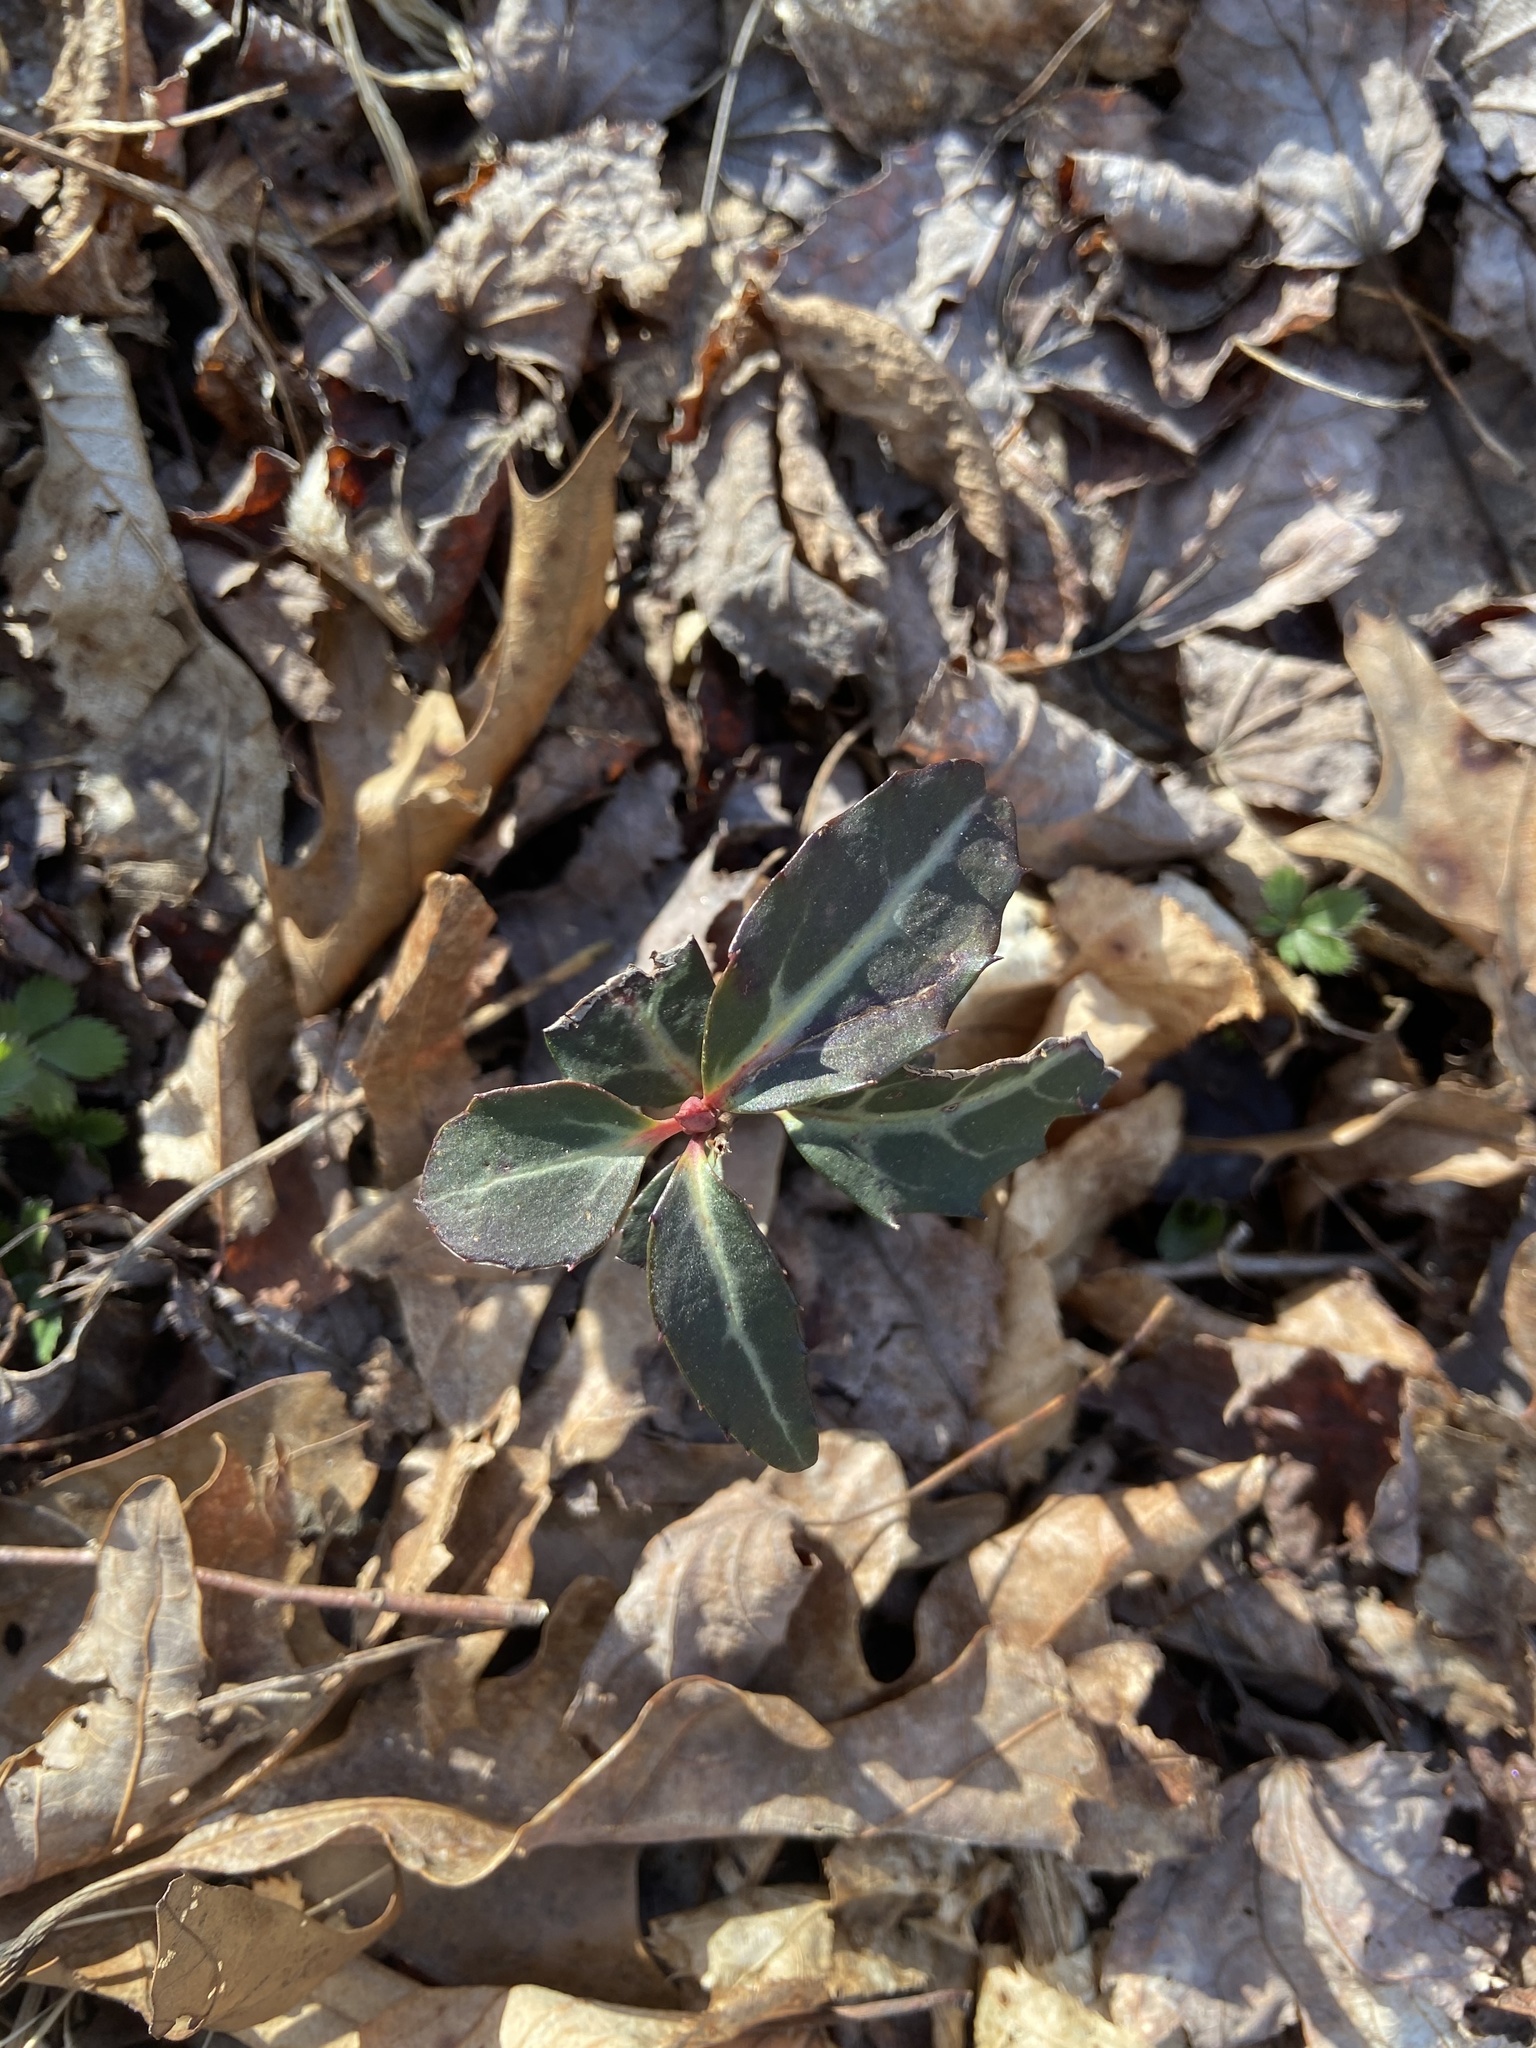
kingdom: Plantae
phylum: Tracheophyta
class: Magnoliopsida
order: Ericales
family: Ericaceae
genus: Chimaphila
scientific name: Chimaphila maculata
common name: Spotted pipsissewa
